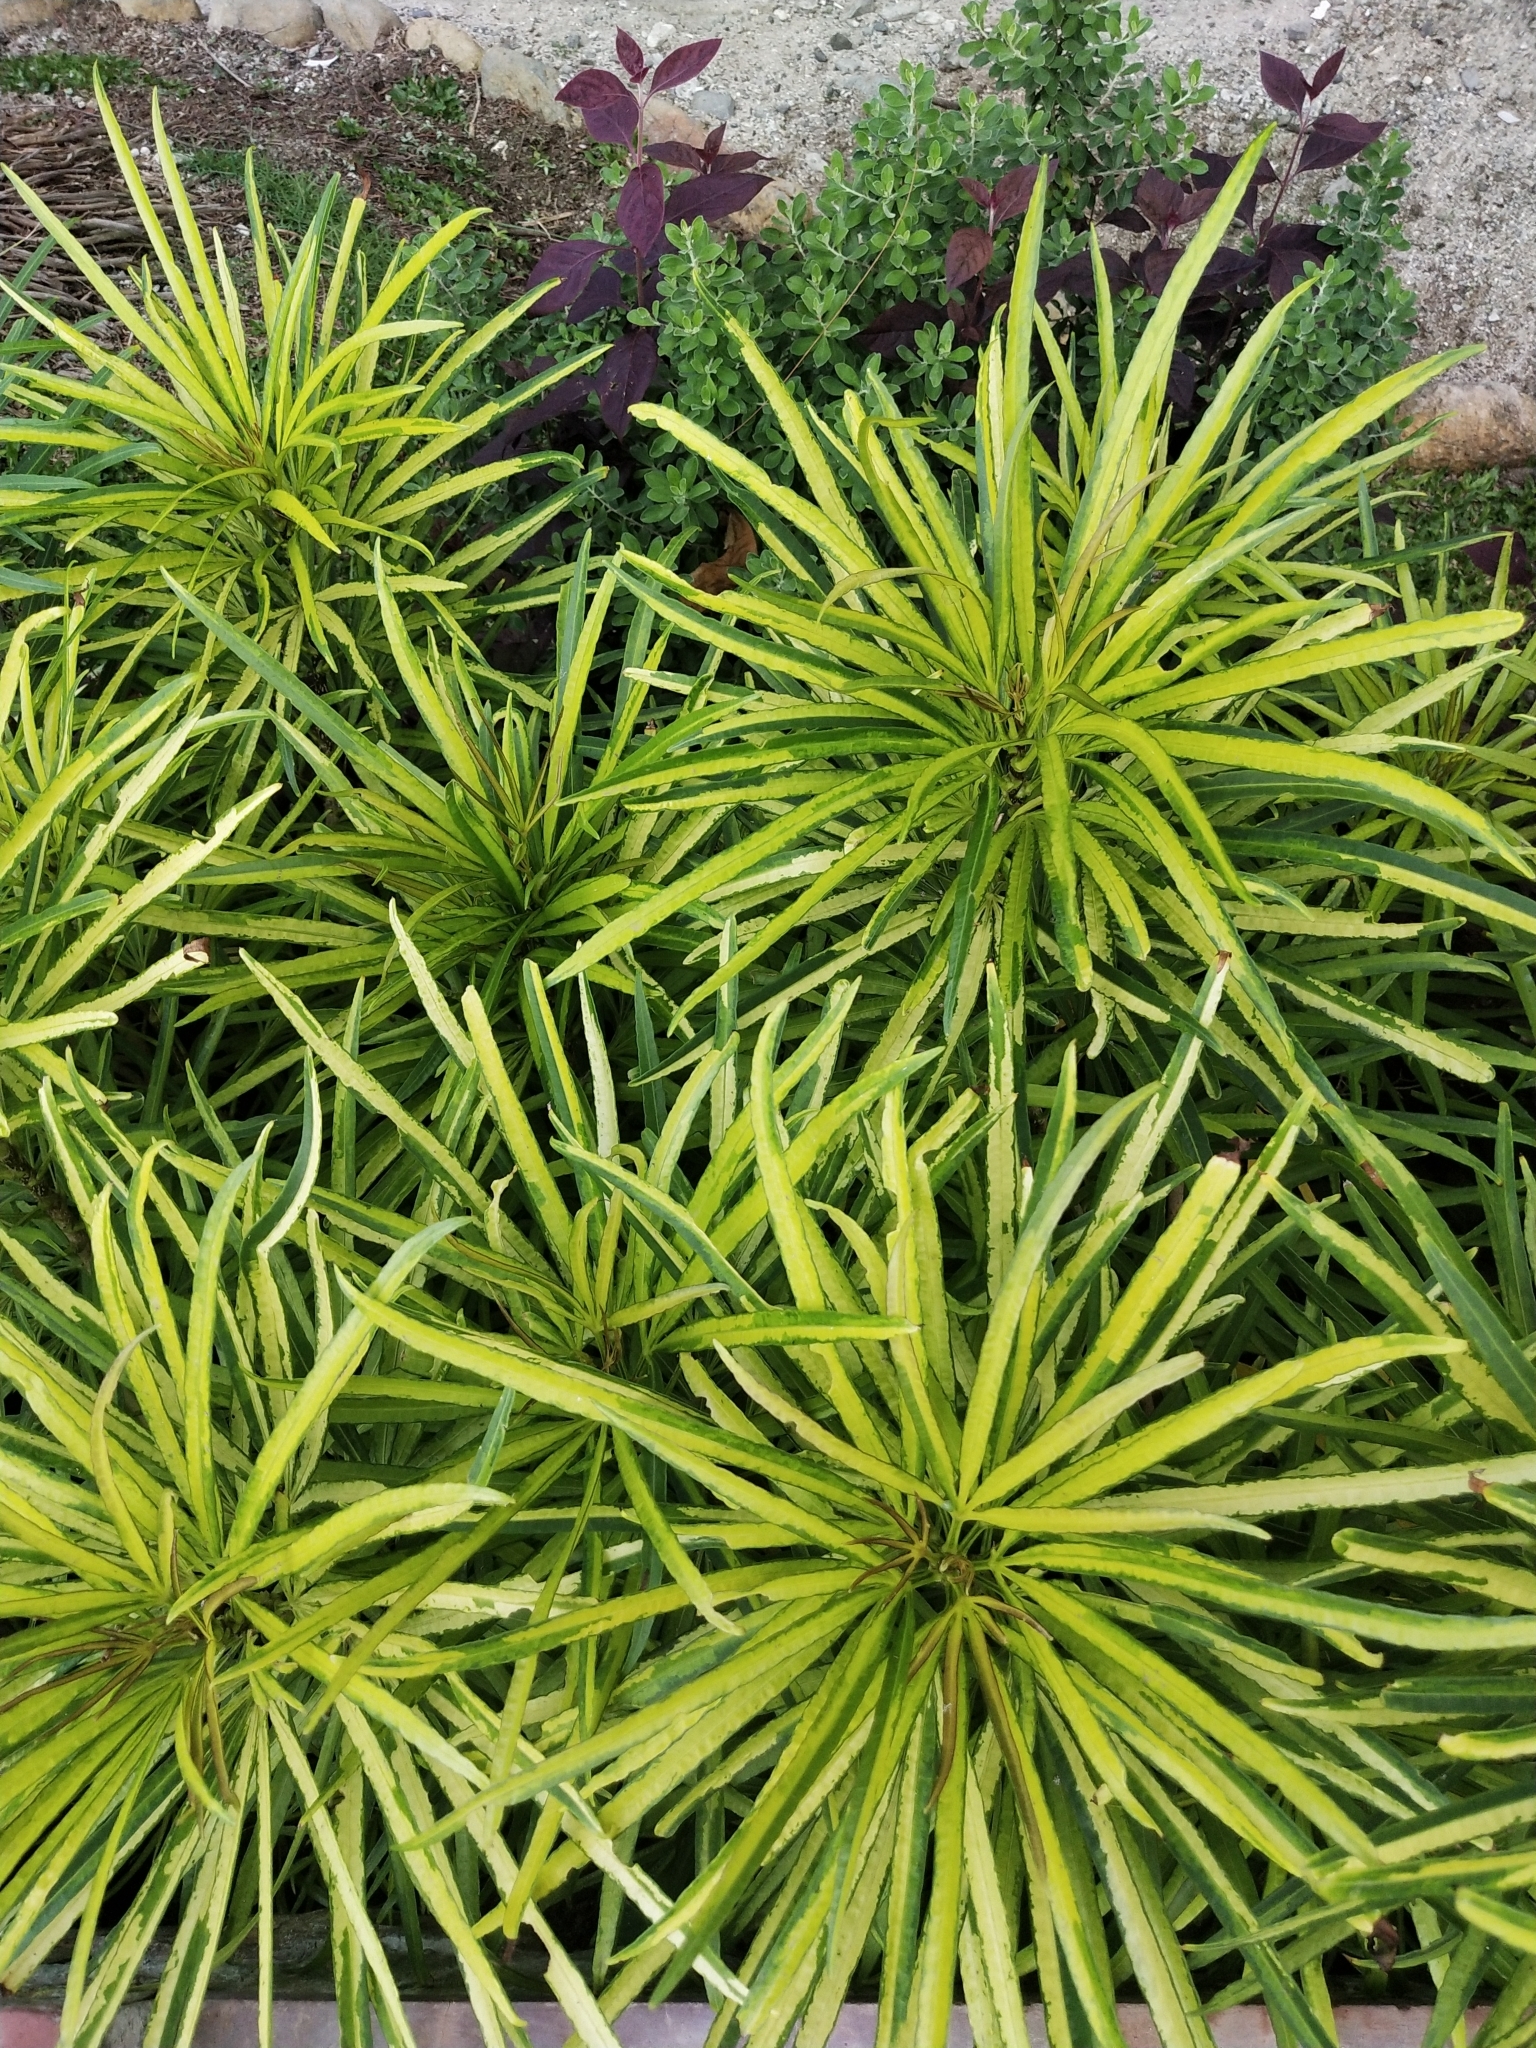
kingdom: Plantae
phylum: Tracheophyta
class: Magnoliopsida
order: Apiales
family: Araliaceae
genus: Osmoxylon
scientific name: Osmoxylon lineare
